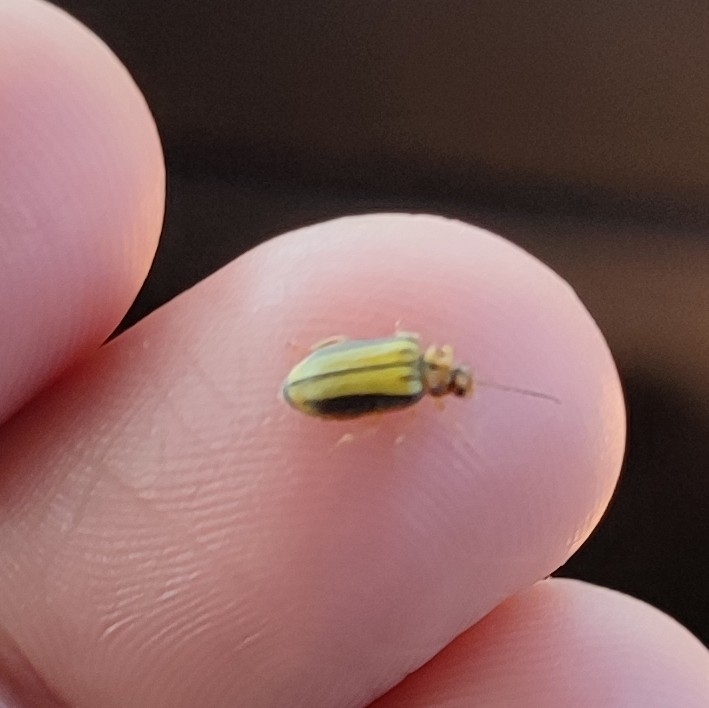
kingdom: Animalia
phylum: Arthropoda
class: Insecta
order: Coleoptera
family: Chrysomelidae
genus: Xanthogaleruca
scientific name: Xanthogaleruca luteola
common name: Elm leaf beetle
